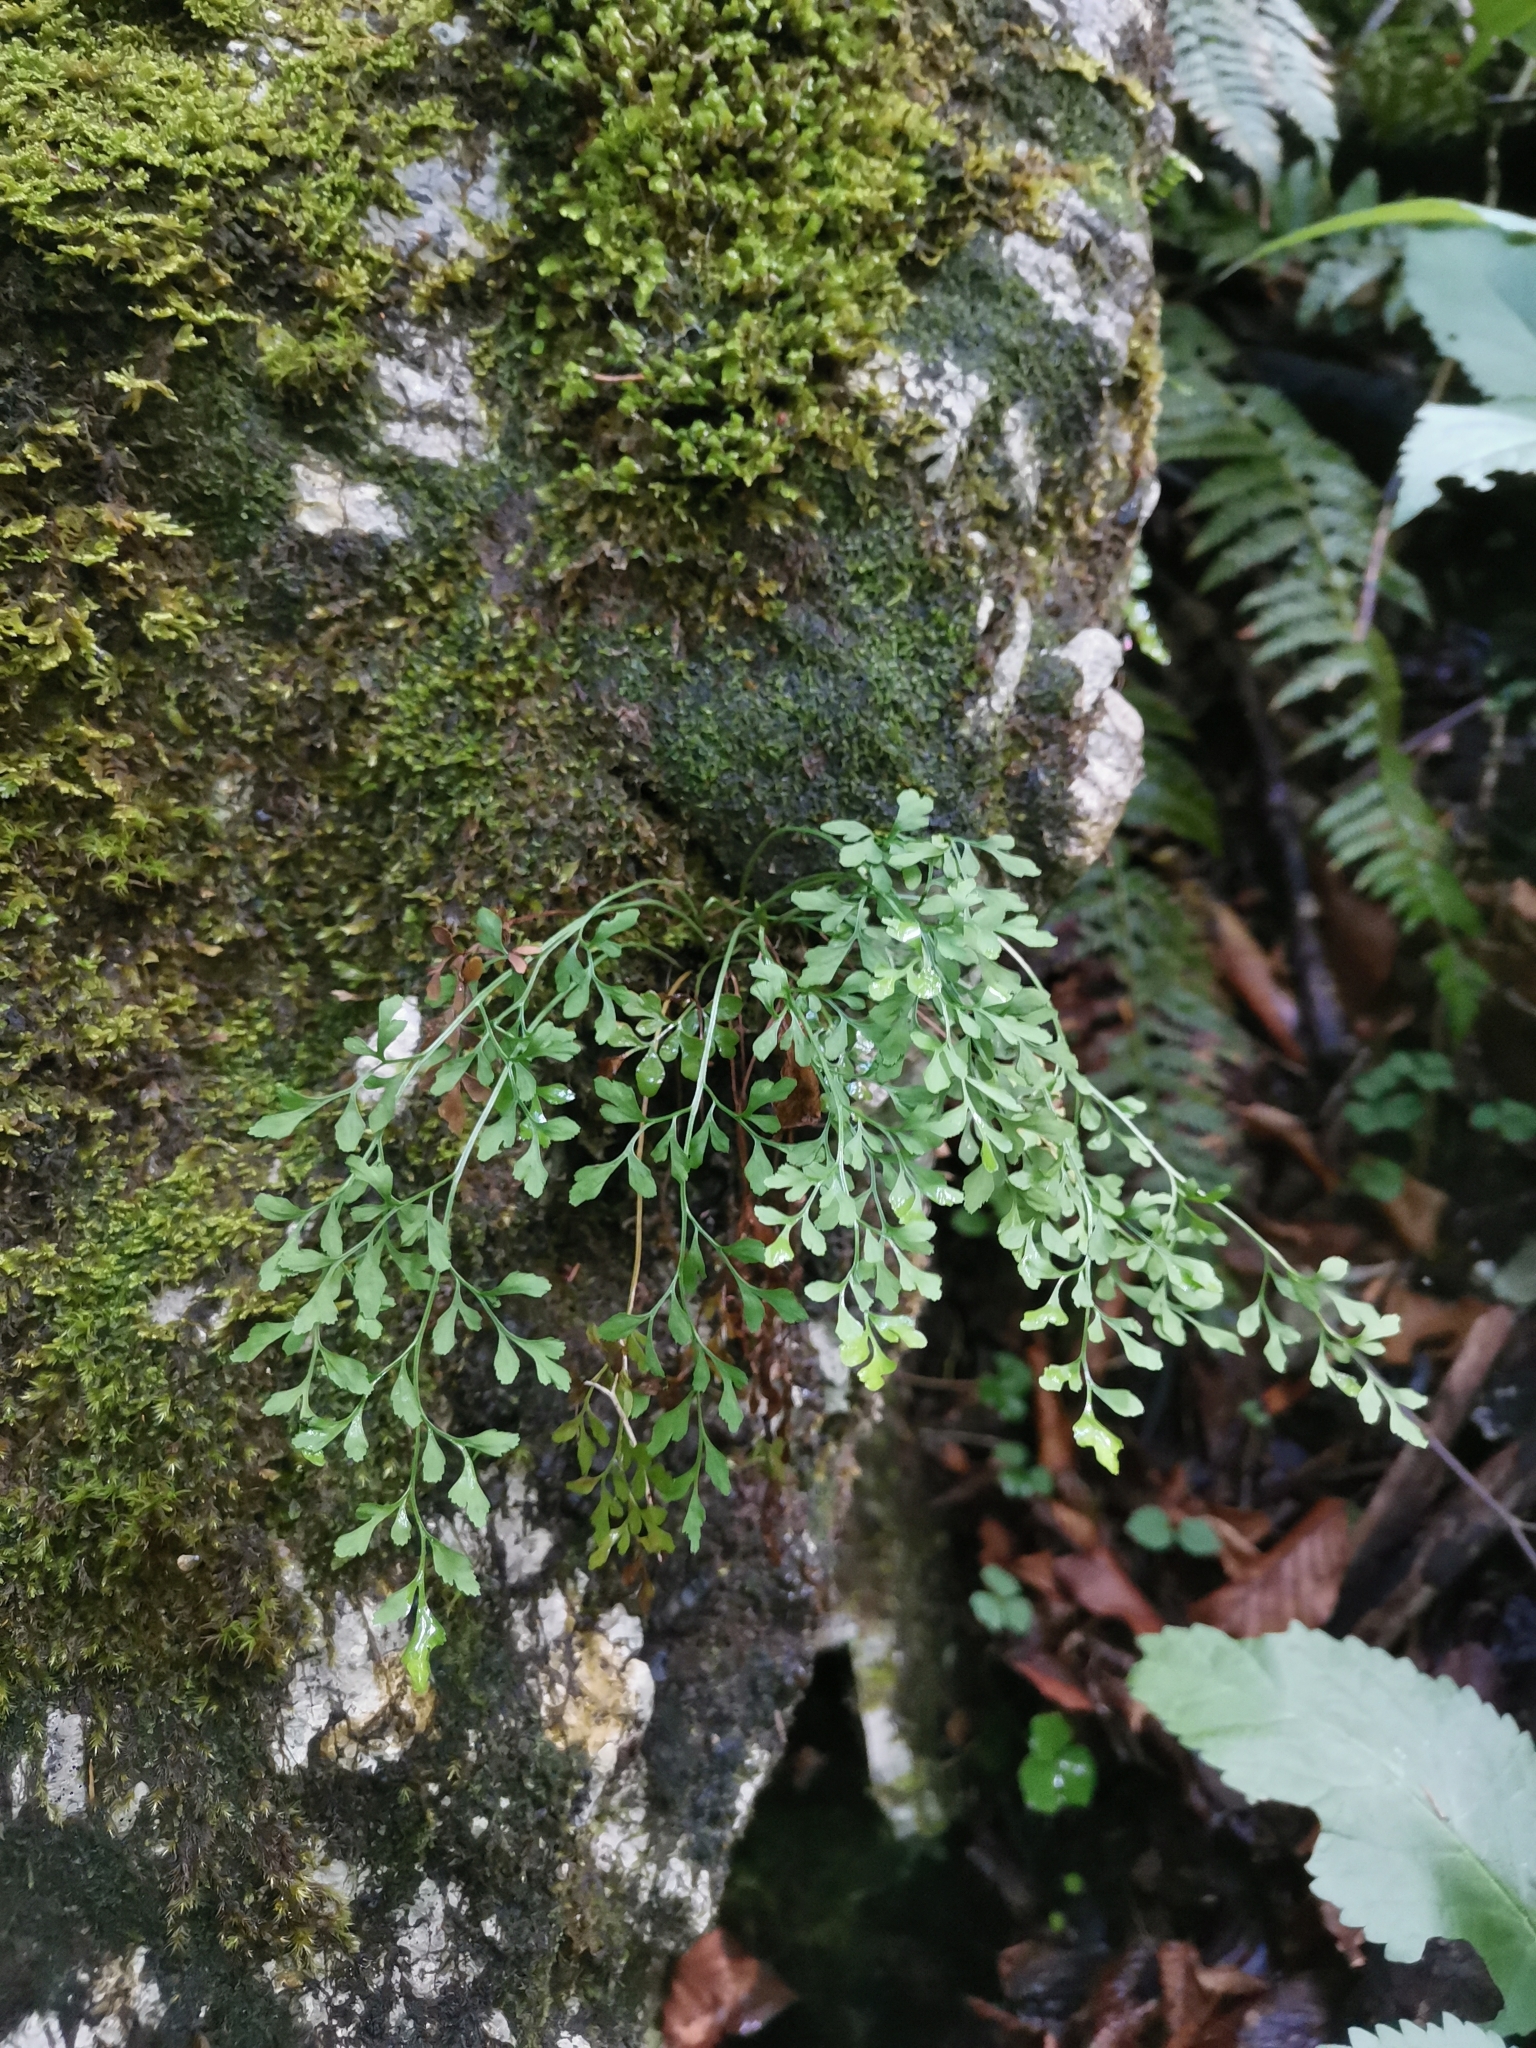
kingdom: Plantae
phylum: Tracheophyta
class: Polypodiopsida
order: Polypodiales
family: Aspleniaceae
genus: Asplenium
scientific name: Asplenium ruta-muraria
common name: Wall-rue
